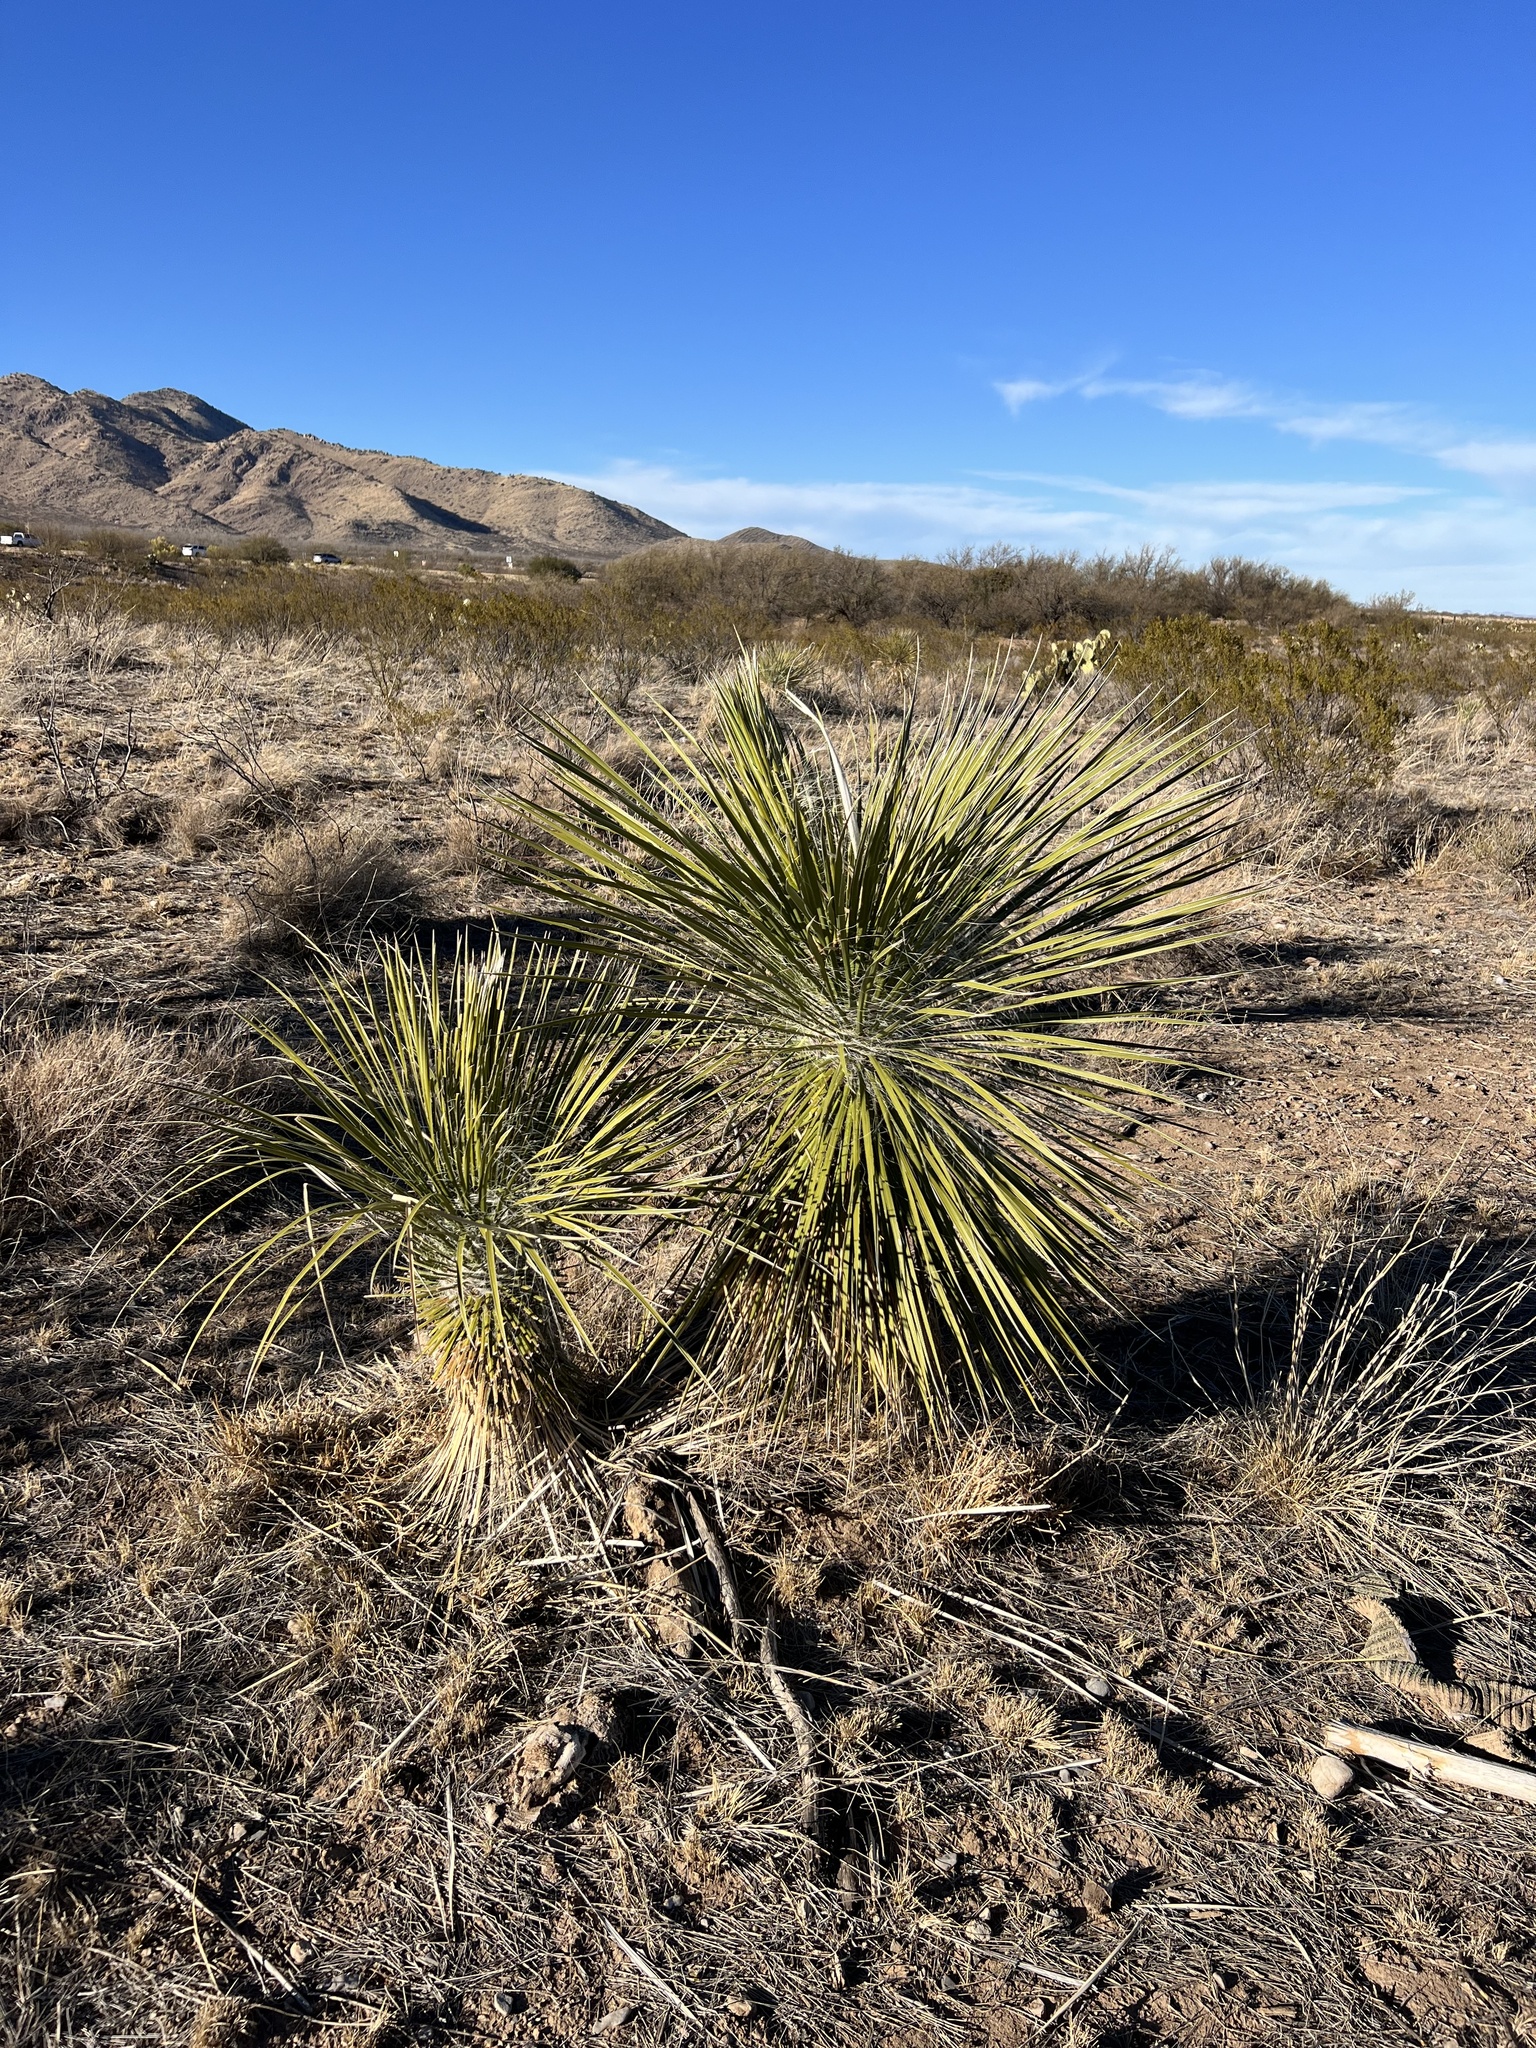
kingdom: Plantae
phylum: Tracheophyta
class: Liliopsida
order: Asparagales
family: Asparagaceae
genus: Yucca
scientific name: Yucca elata
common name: Palmella
